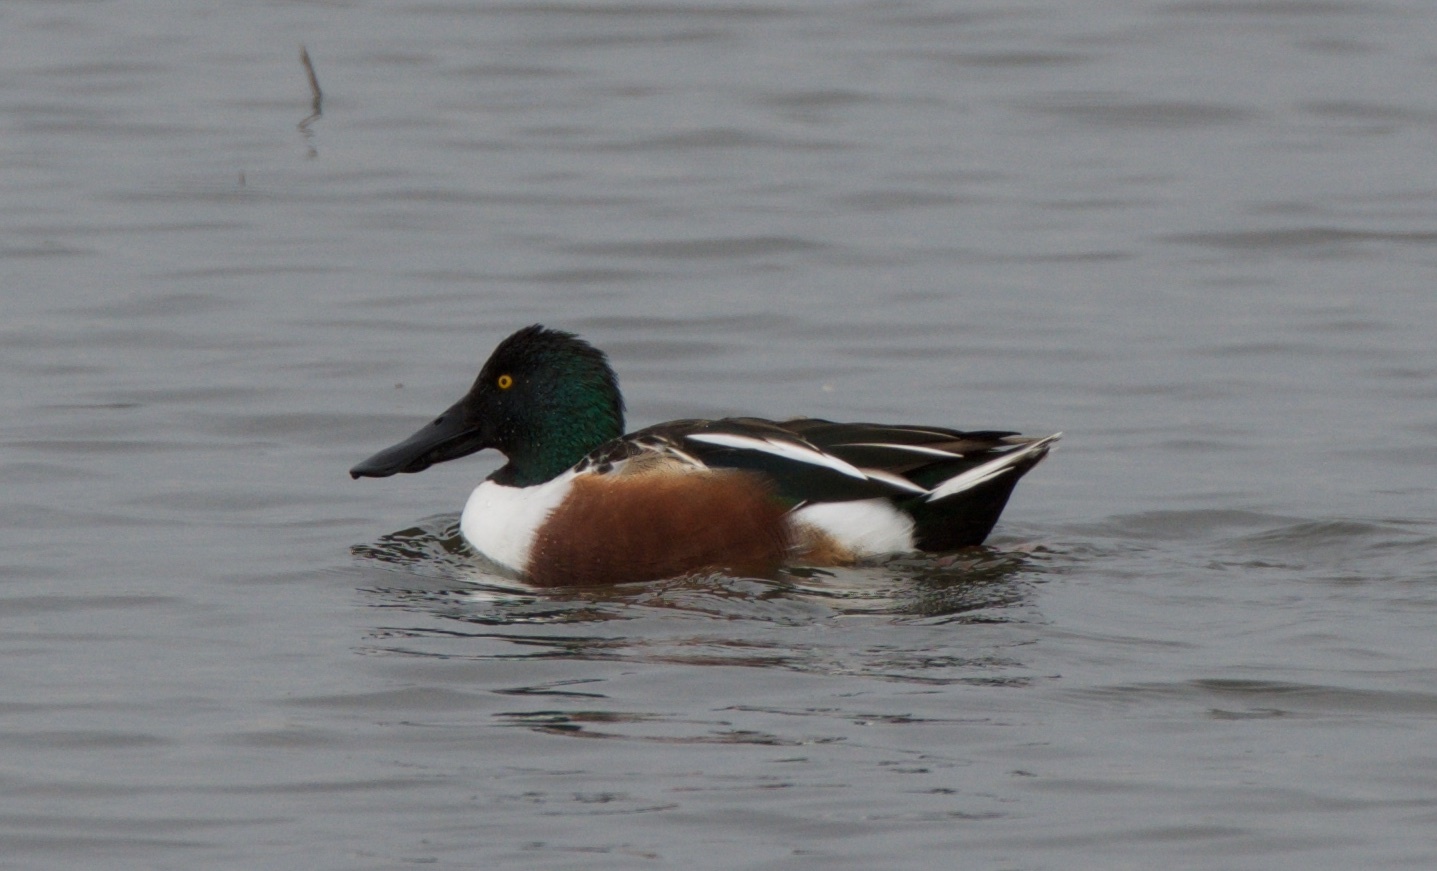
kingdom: Animalia
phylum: Chordata
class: Aves
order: Anseriformes
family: Anatidae
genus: Spatula
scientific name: Spatula clypeata
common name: Northern shoveler
